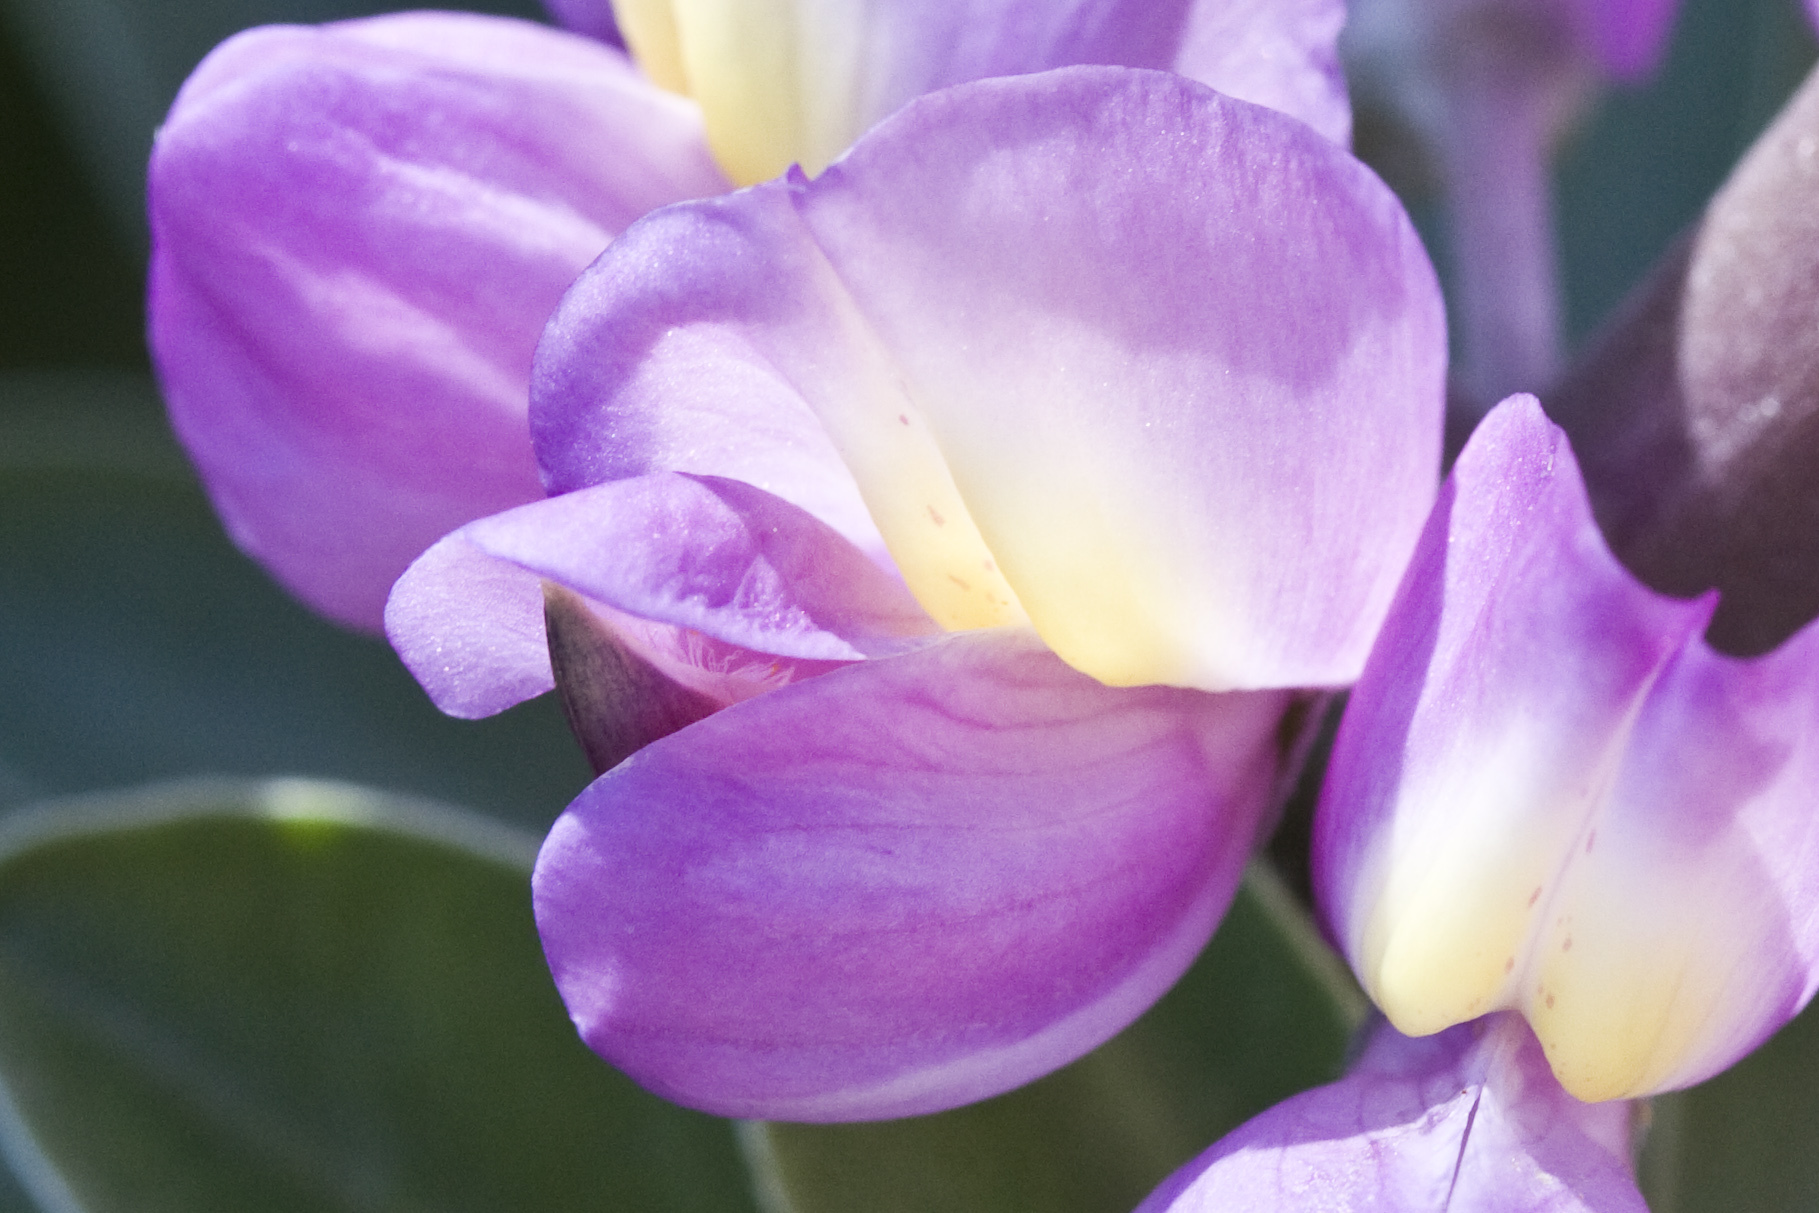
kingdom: Plantae
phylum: Tracheophyta
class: Magnoliopsida
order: Fabales
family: Fabaceae
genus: Lupinus
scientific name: Lupinus cervinus
